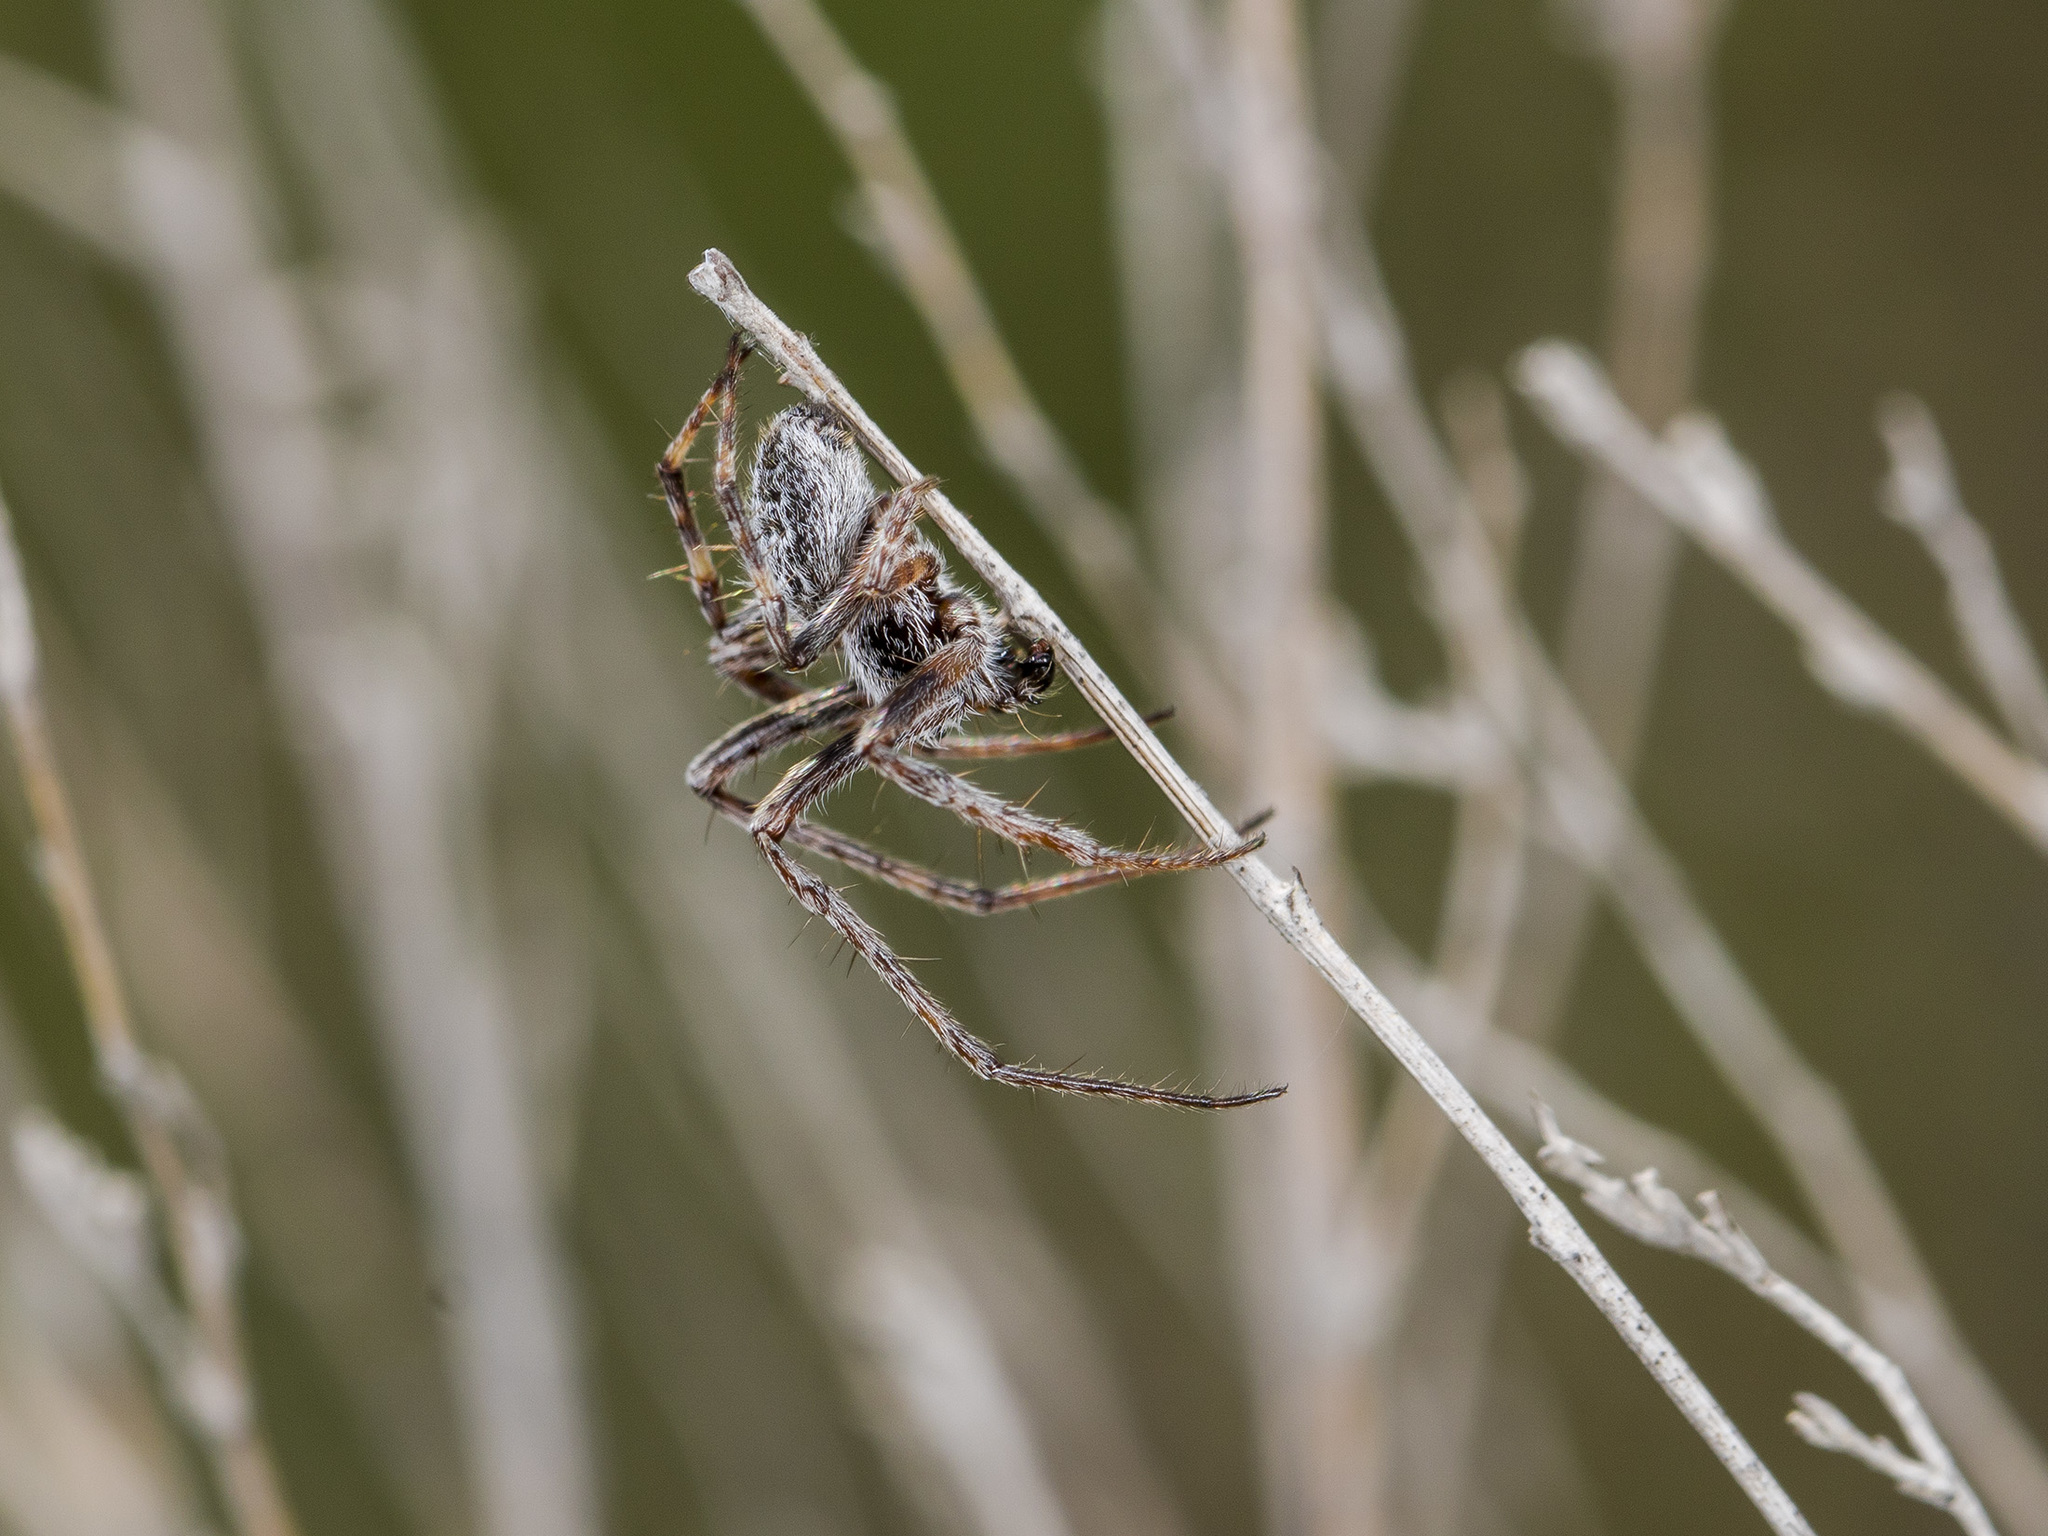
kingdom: Animalia
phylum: Arthropoda
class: Arachnida
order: Araneae
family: Araneidae
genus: Agalenatea
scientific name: Agalenatea redii
